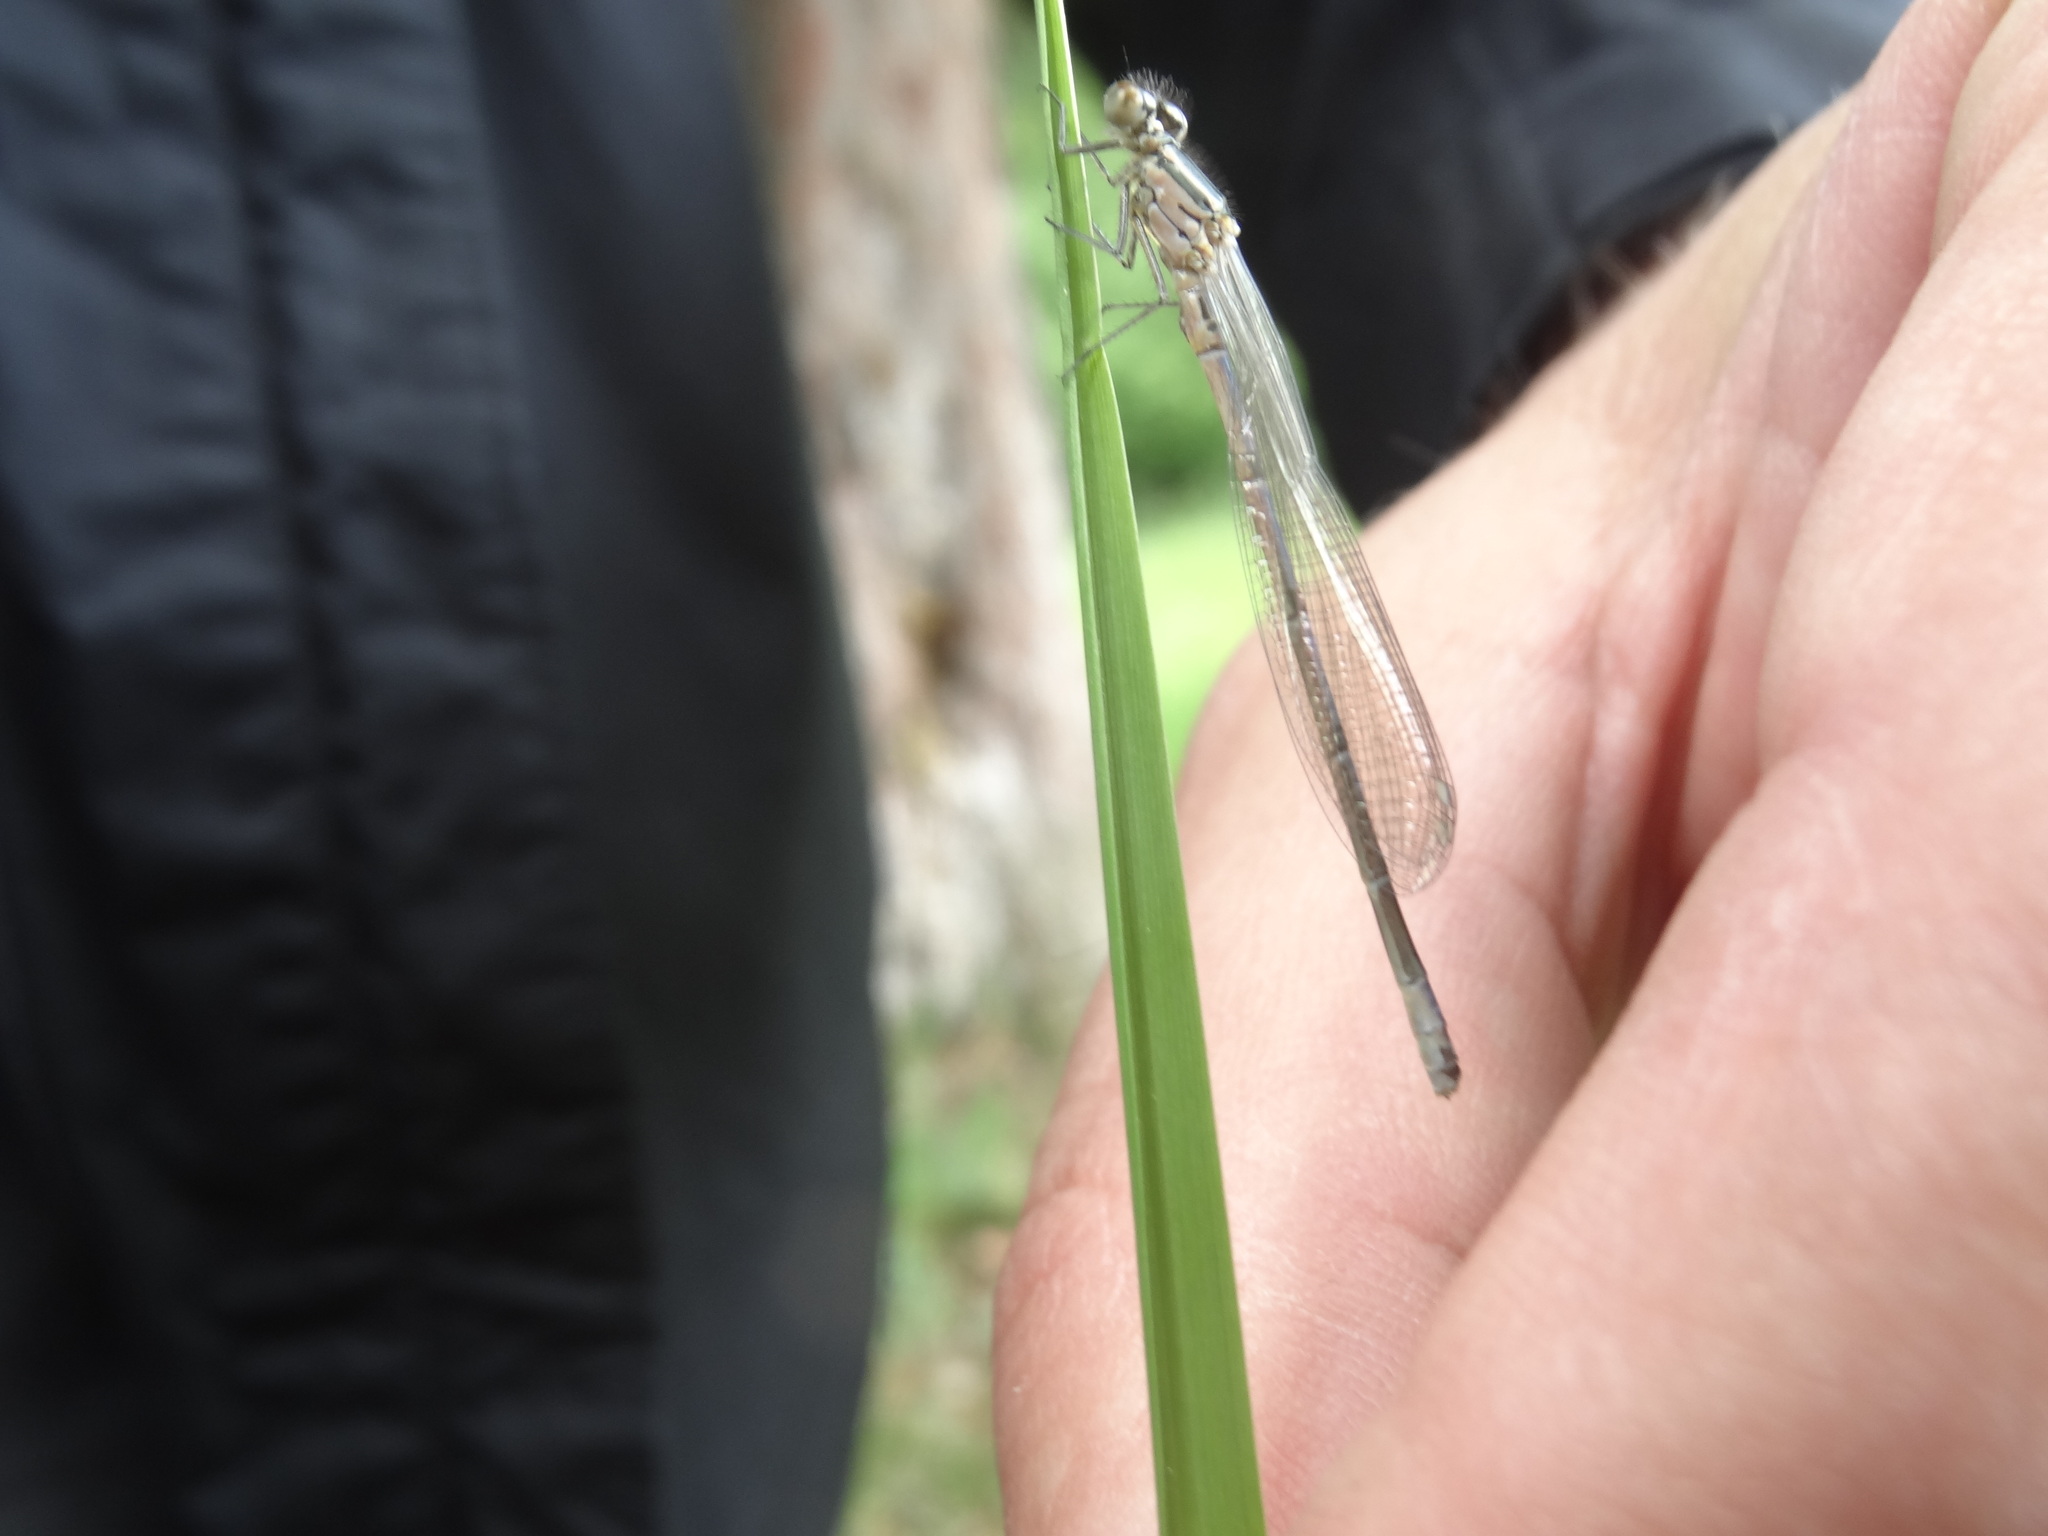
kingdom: Animalia
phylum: Arthropoda
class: Insecta
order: Odonata
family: Coenagrionidae
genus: Coenagrion
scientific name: Coenagrion puella
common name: Azure damselfly
